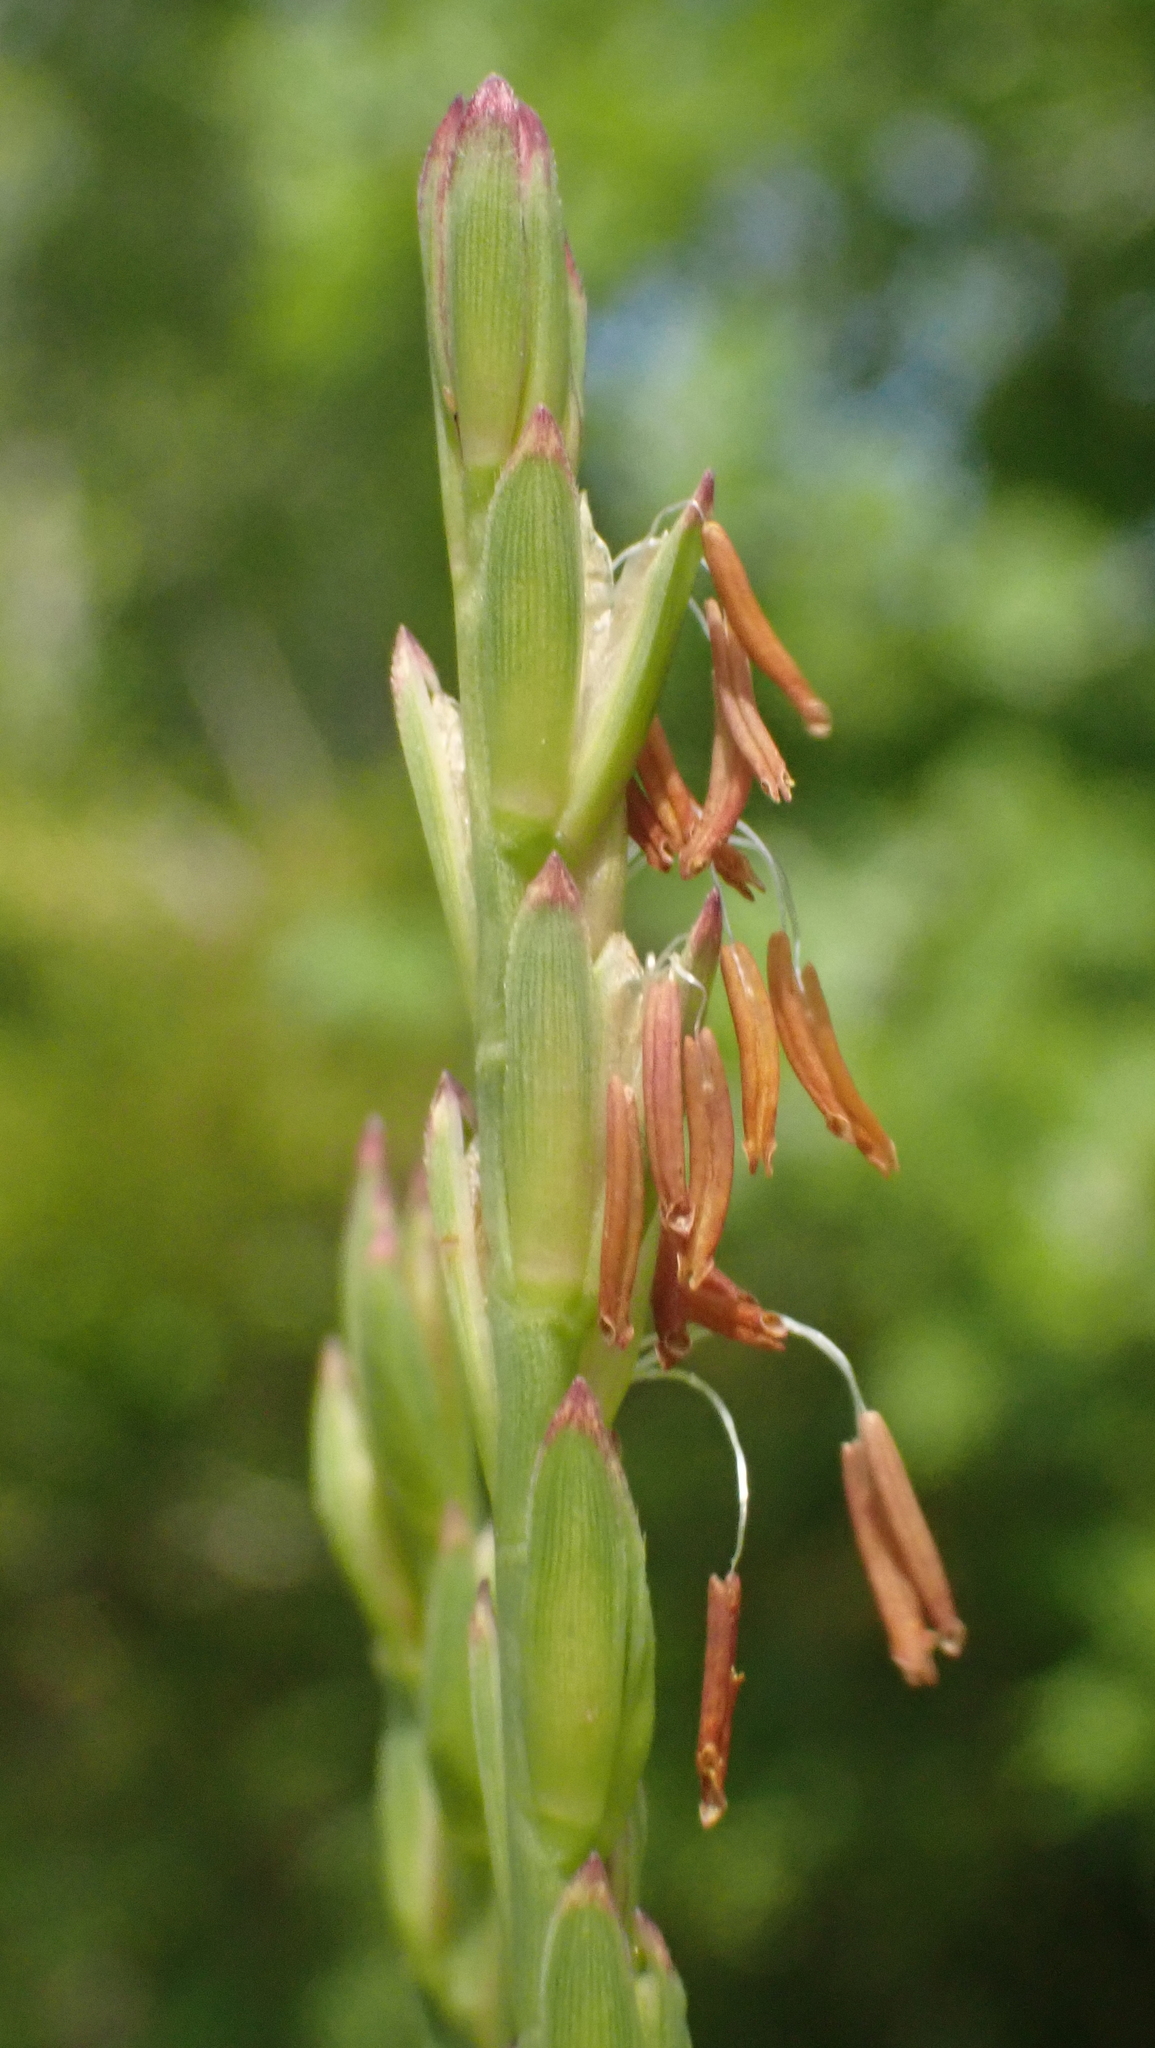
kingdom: Plantae
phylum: Tracheophyta
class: Liliopsida
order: Poales
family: Poaceae
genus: Tripsacum
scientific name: Tripsacum dactyloides
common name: Buffalo-grass
